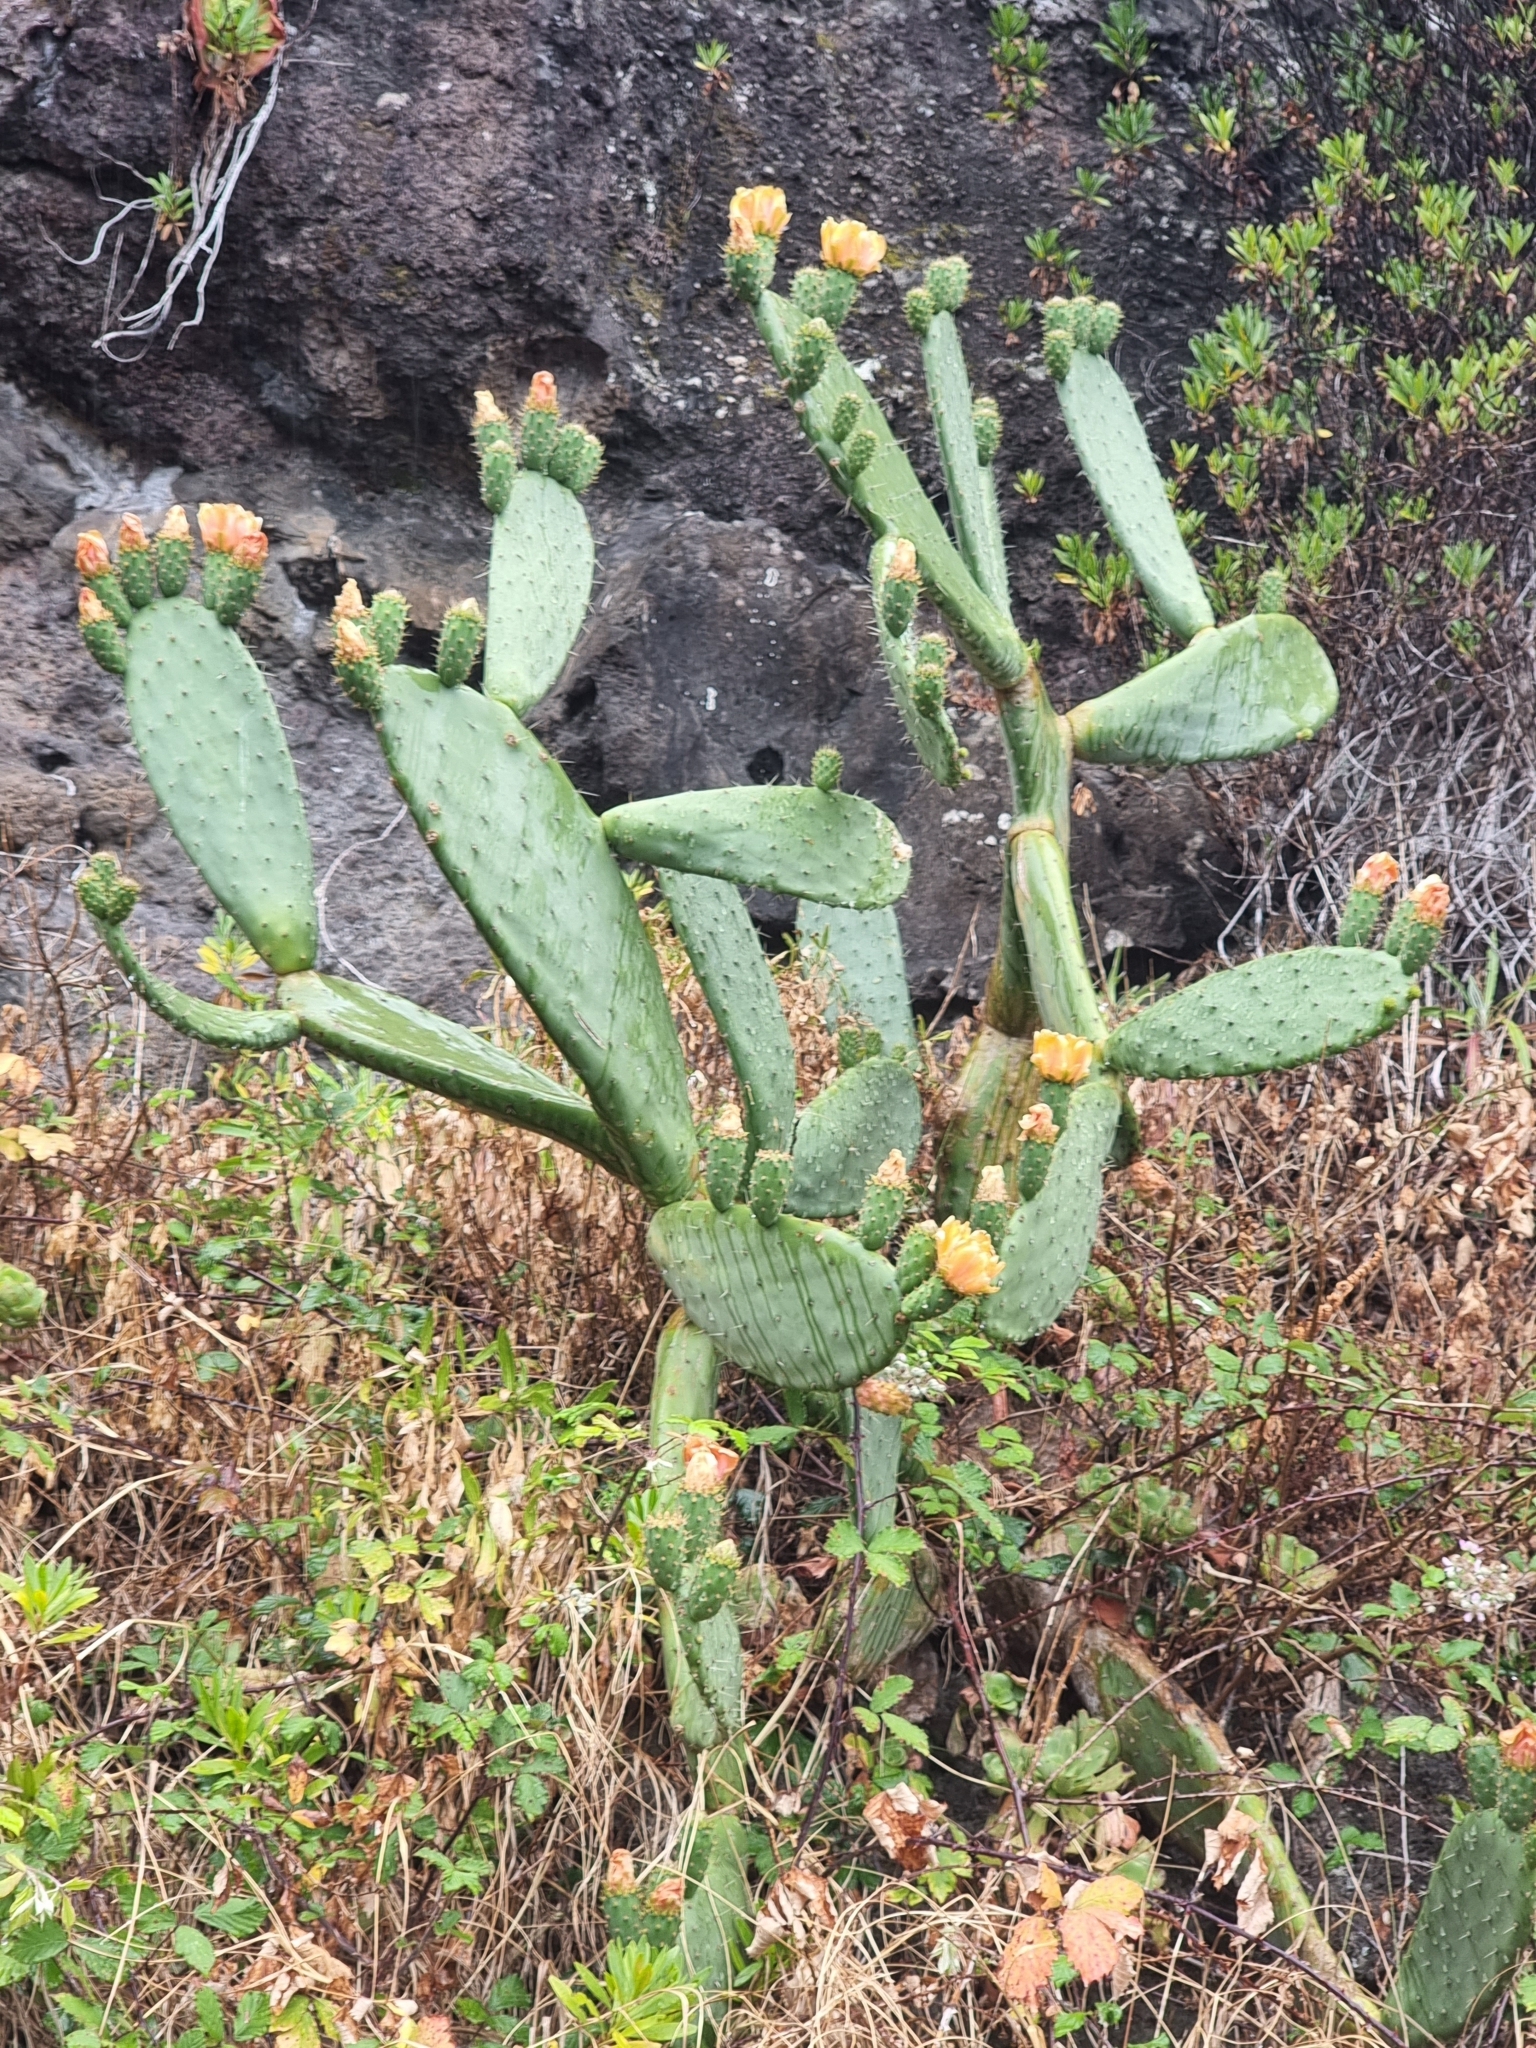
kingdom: Plantae
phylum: Tracheophyta
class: Magnoliopsida
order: Caryophyllales
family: Cactaceae
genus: Opuntia
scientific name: Opuntia ficus-indica
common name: Barbary fig
